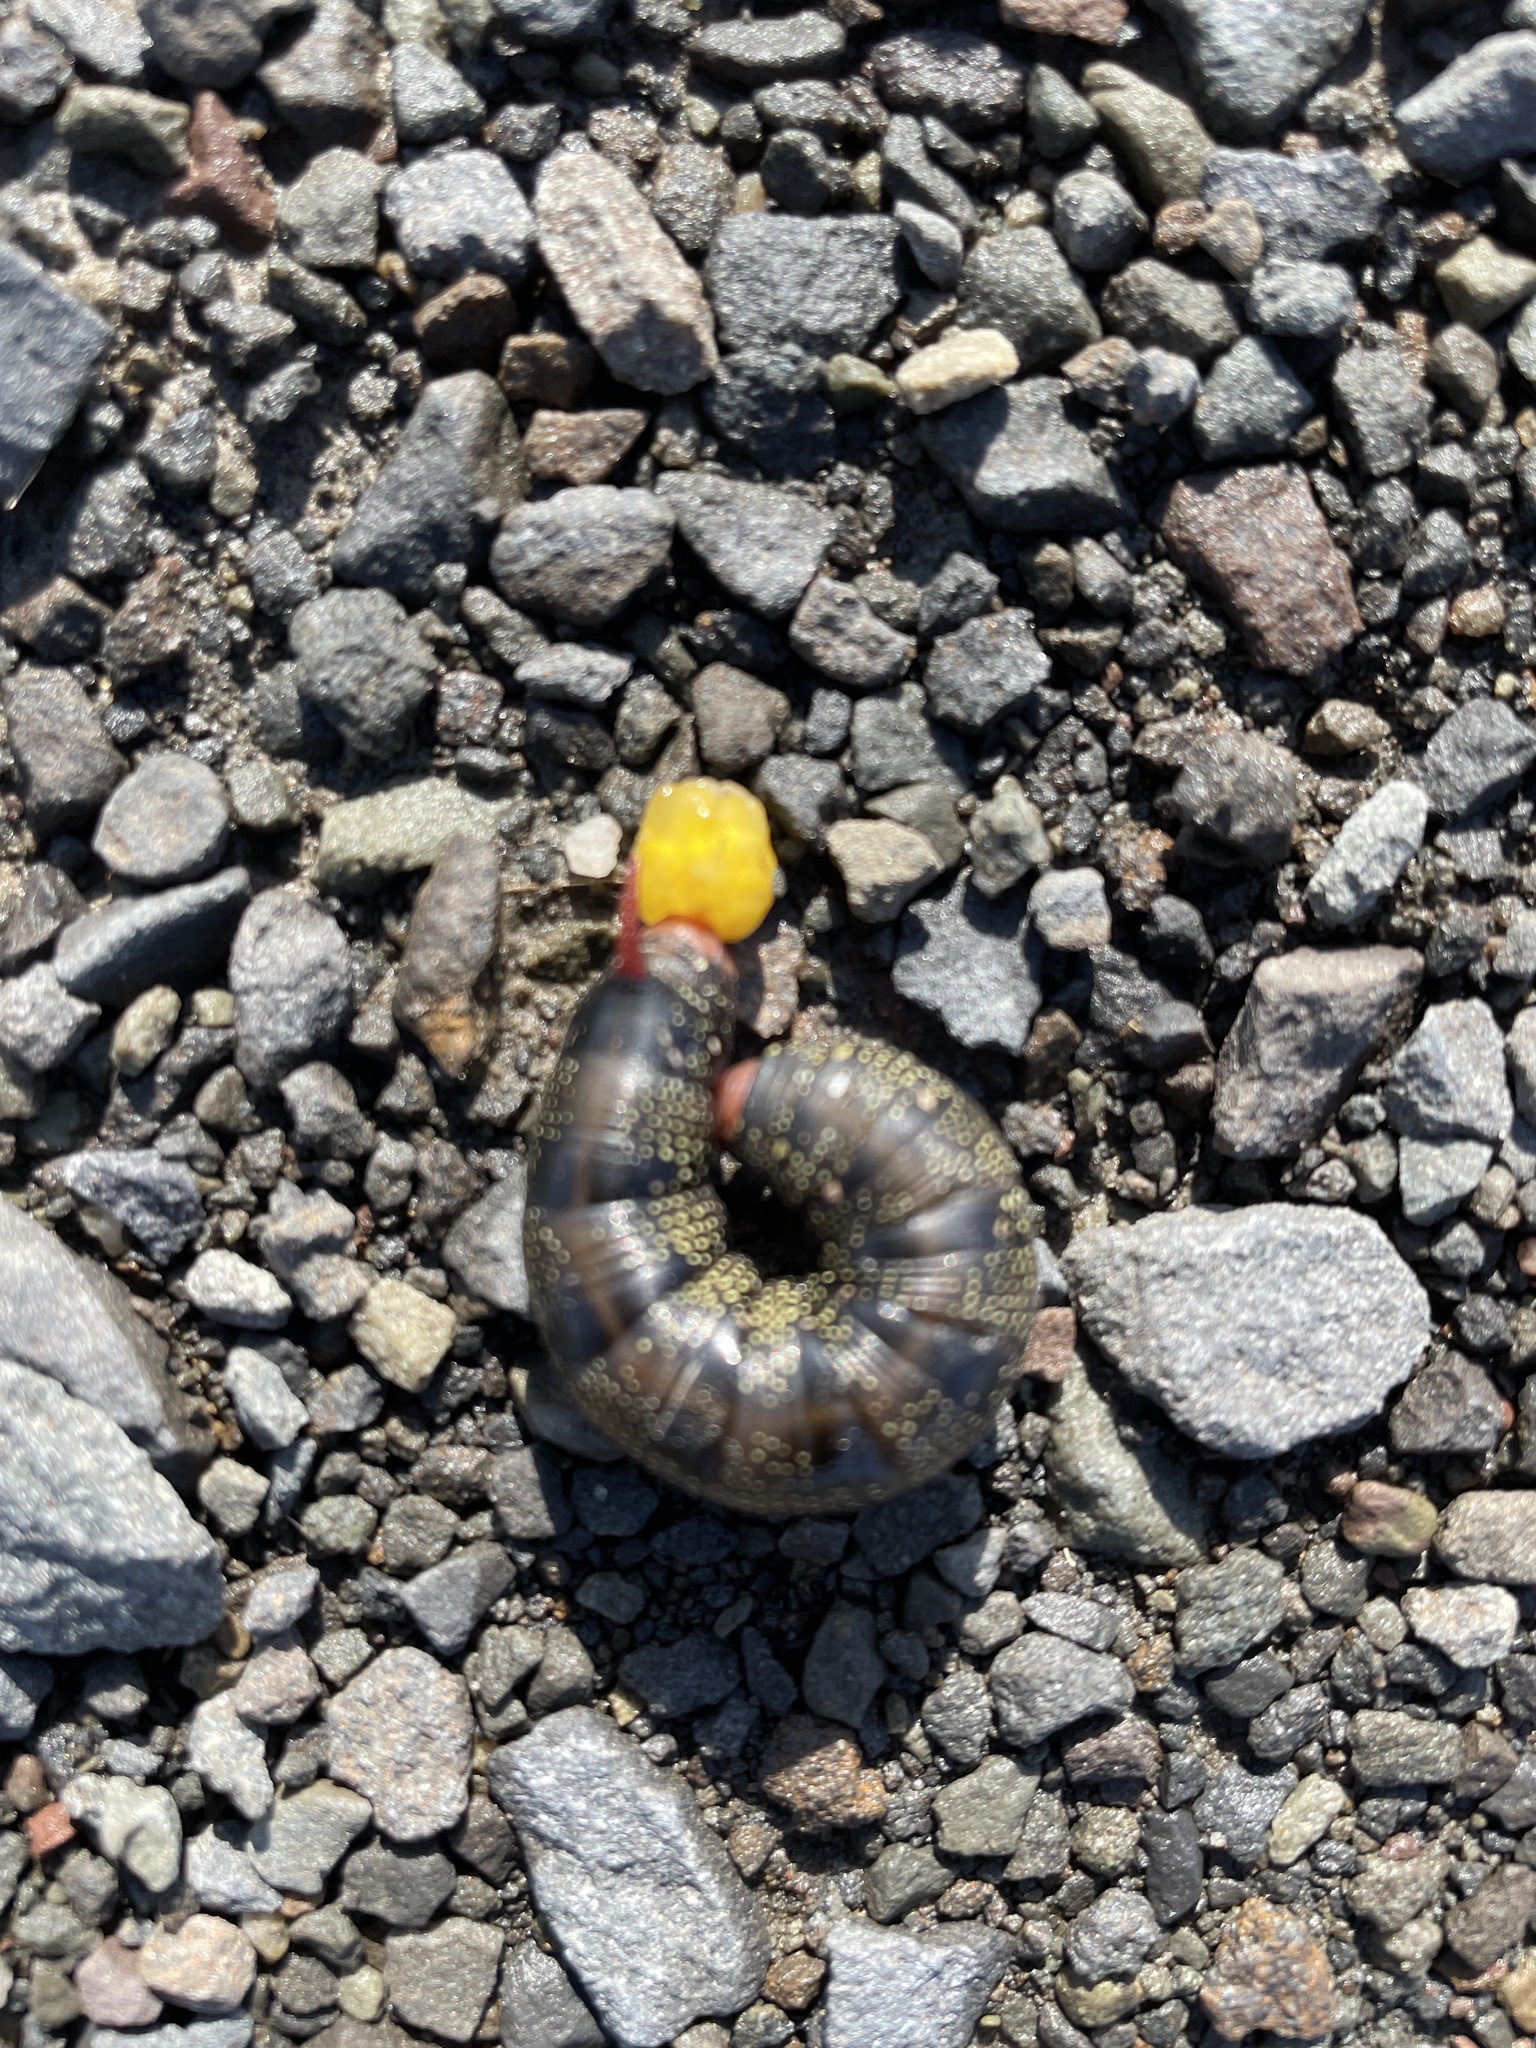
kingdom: Animalia
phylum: Arthropoda
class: Insecta
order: Lepidoptera
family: Sphingidae
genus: Hyles
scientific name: Hyles gallii
